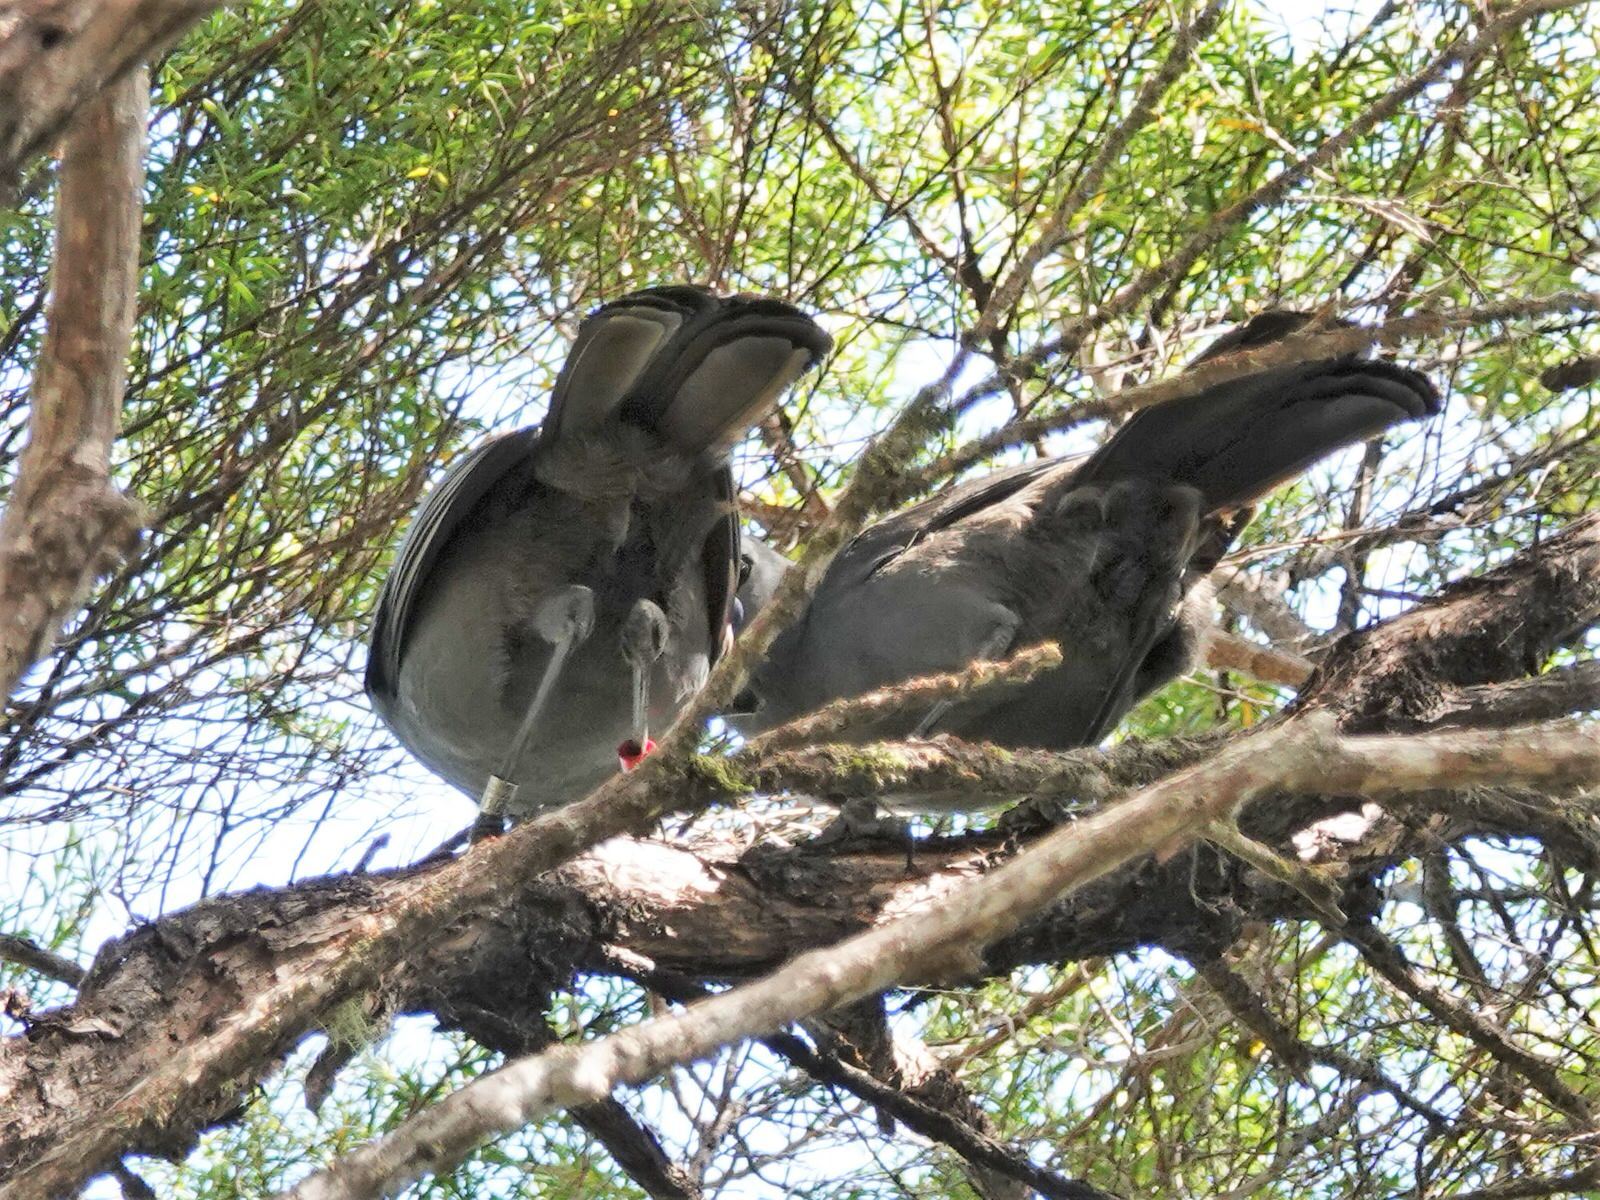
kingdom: Animalia
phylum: Chordata
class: Aves
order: Passeriformes
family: Callaeatidae
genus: Callaeas
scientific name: Callaeas cinereus
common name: South island kokako
